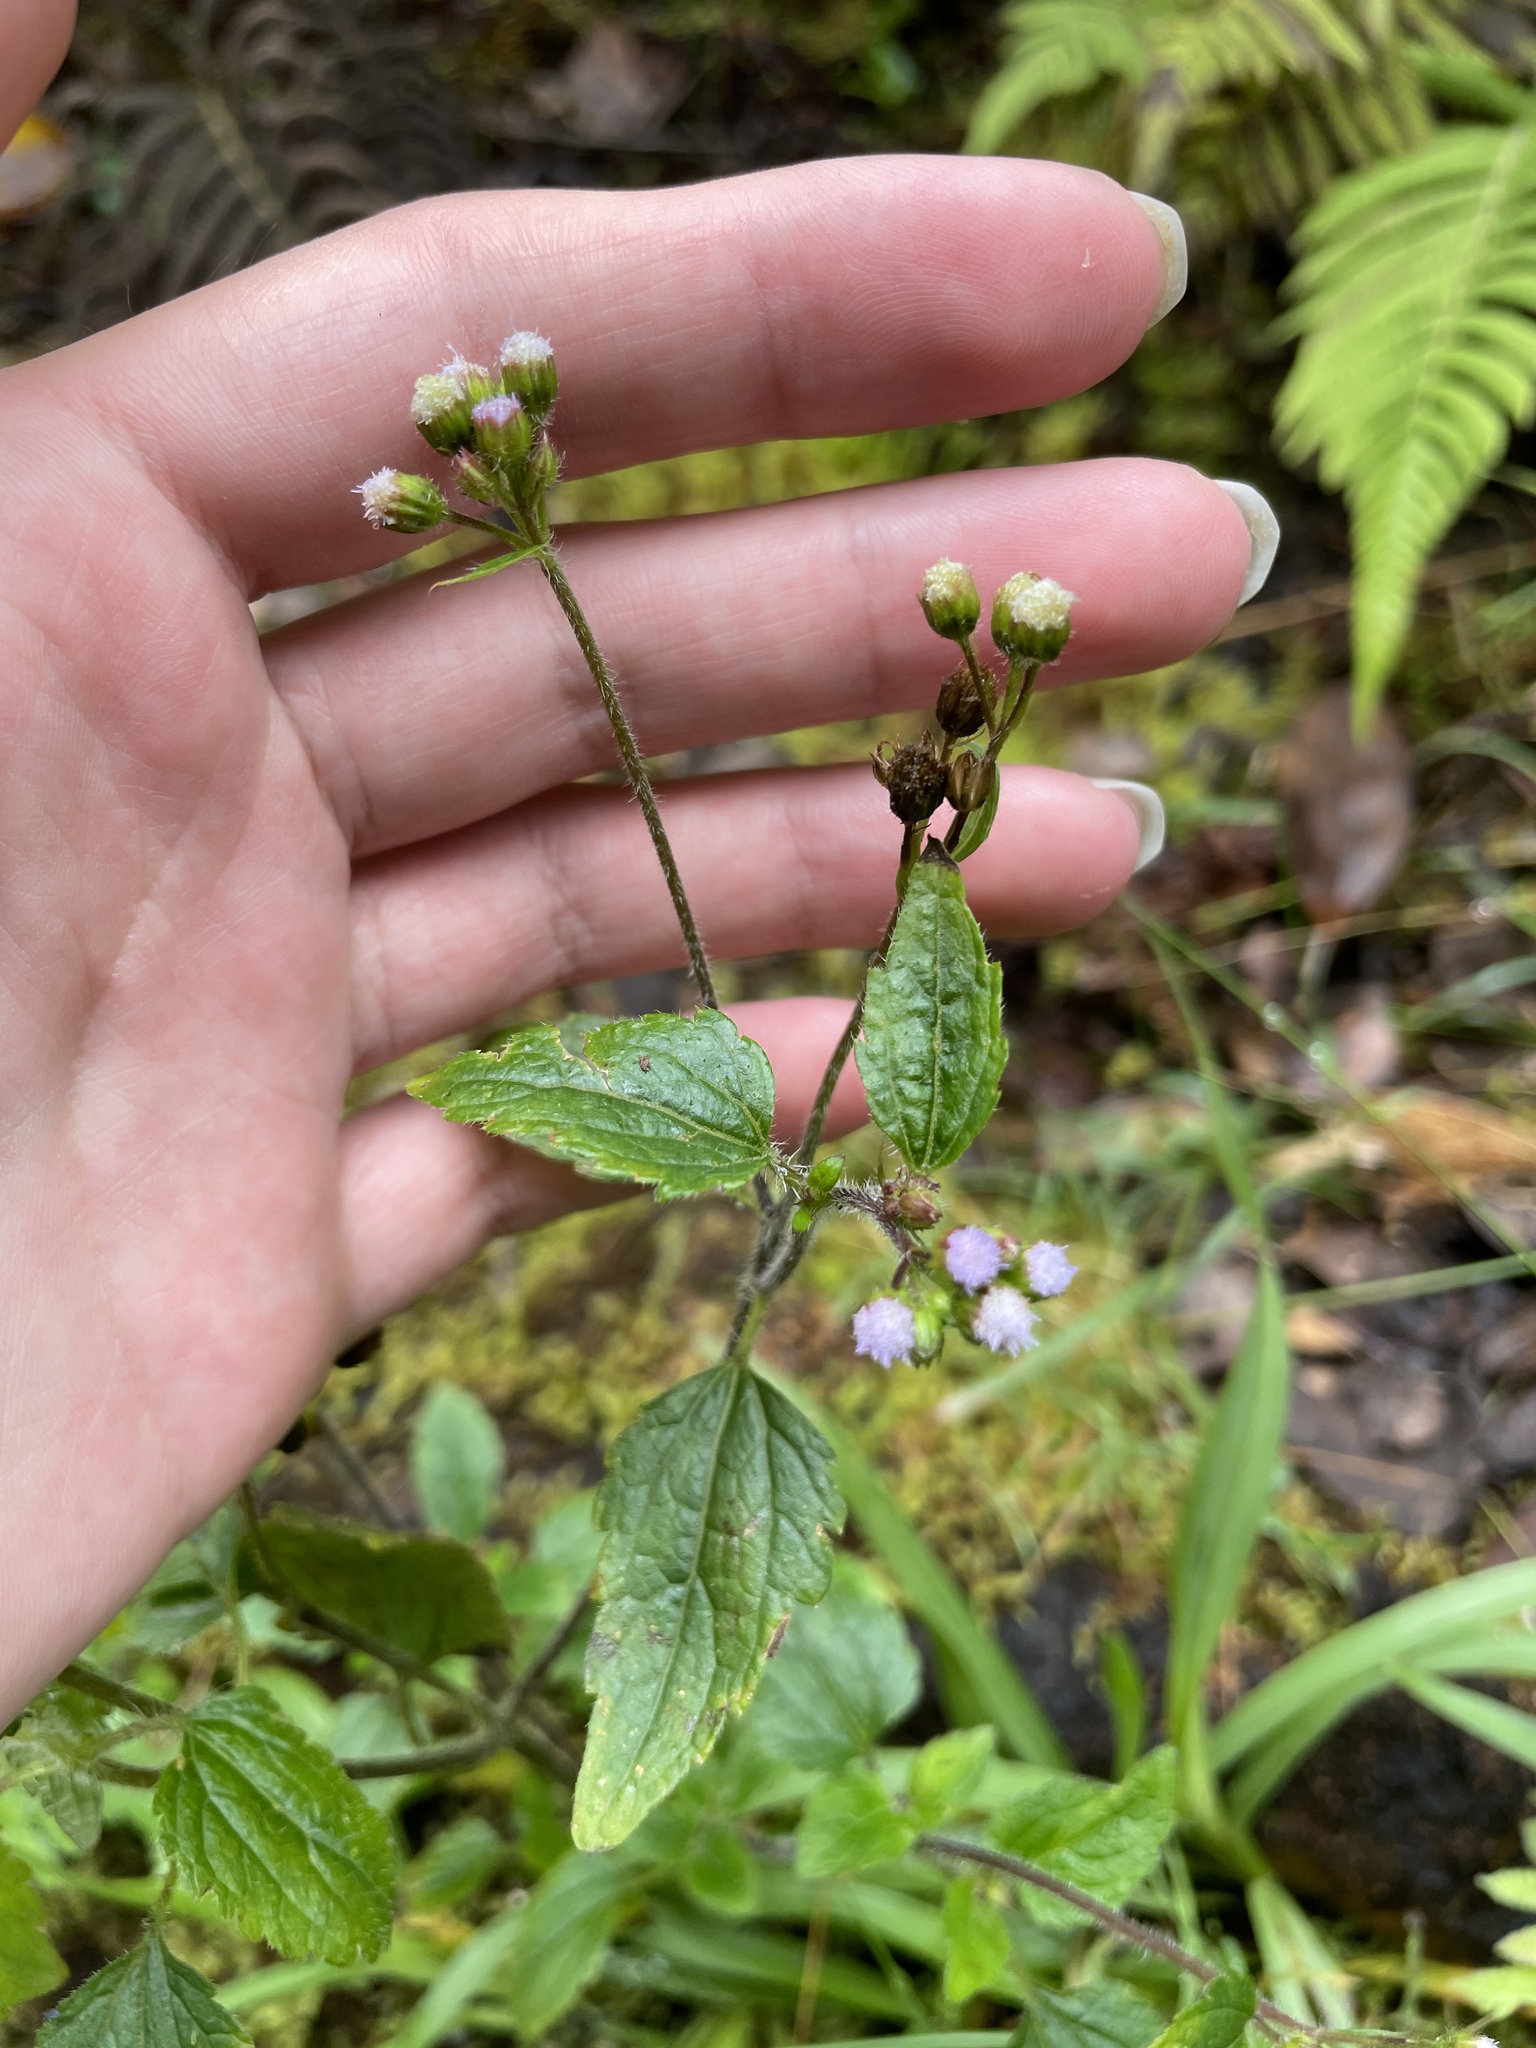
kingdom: Plantae
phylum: Tracheophyta
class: Magnoliopsida
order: Asterales
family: Asteraceae
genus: Ageratum
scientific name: Ageratum conyzoides
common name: Tropical whiteweed
